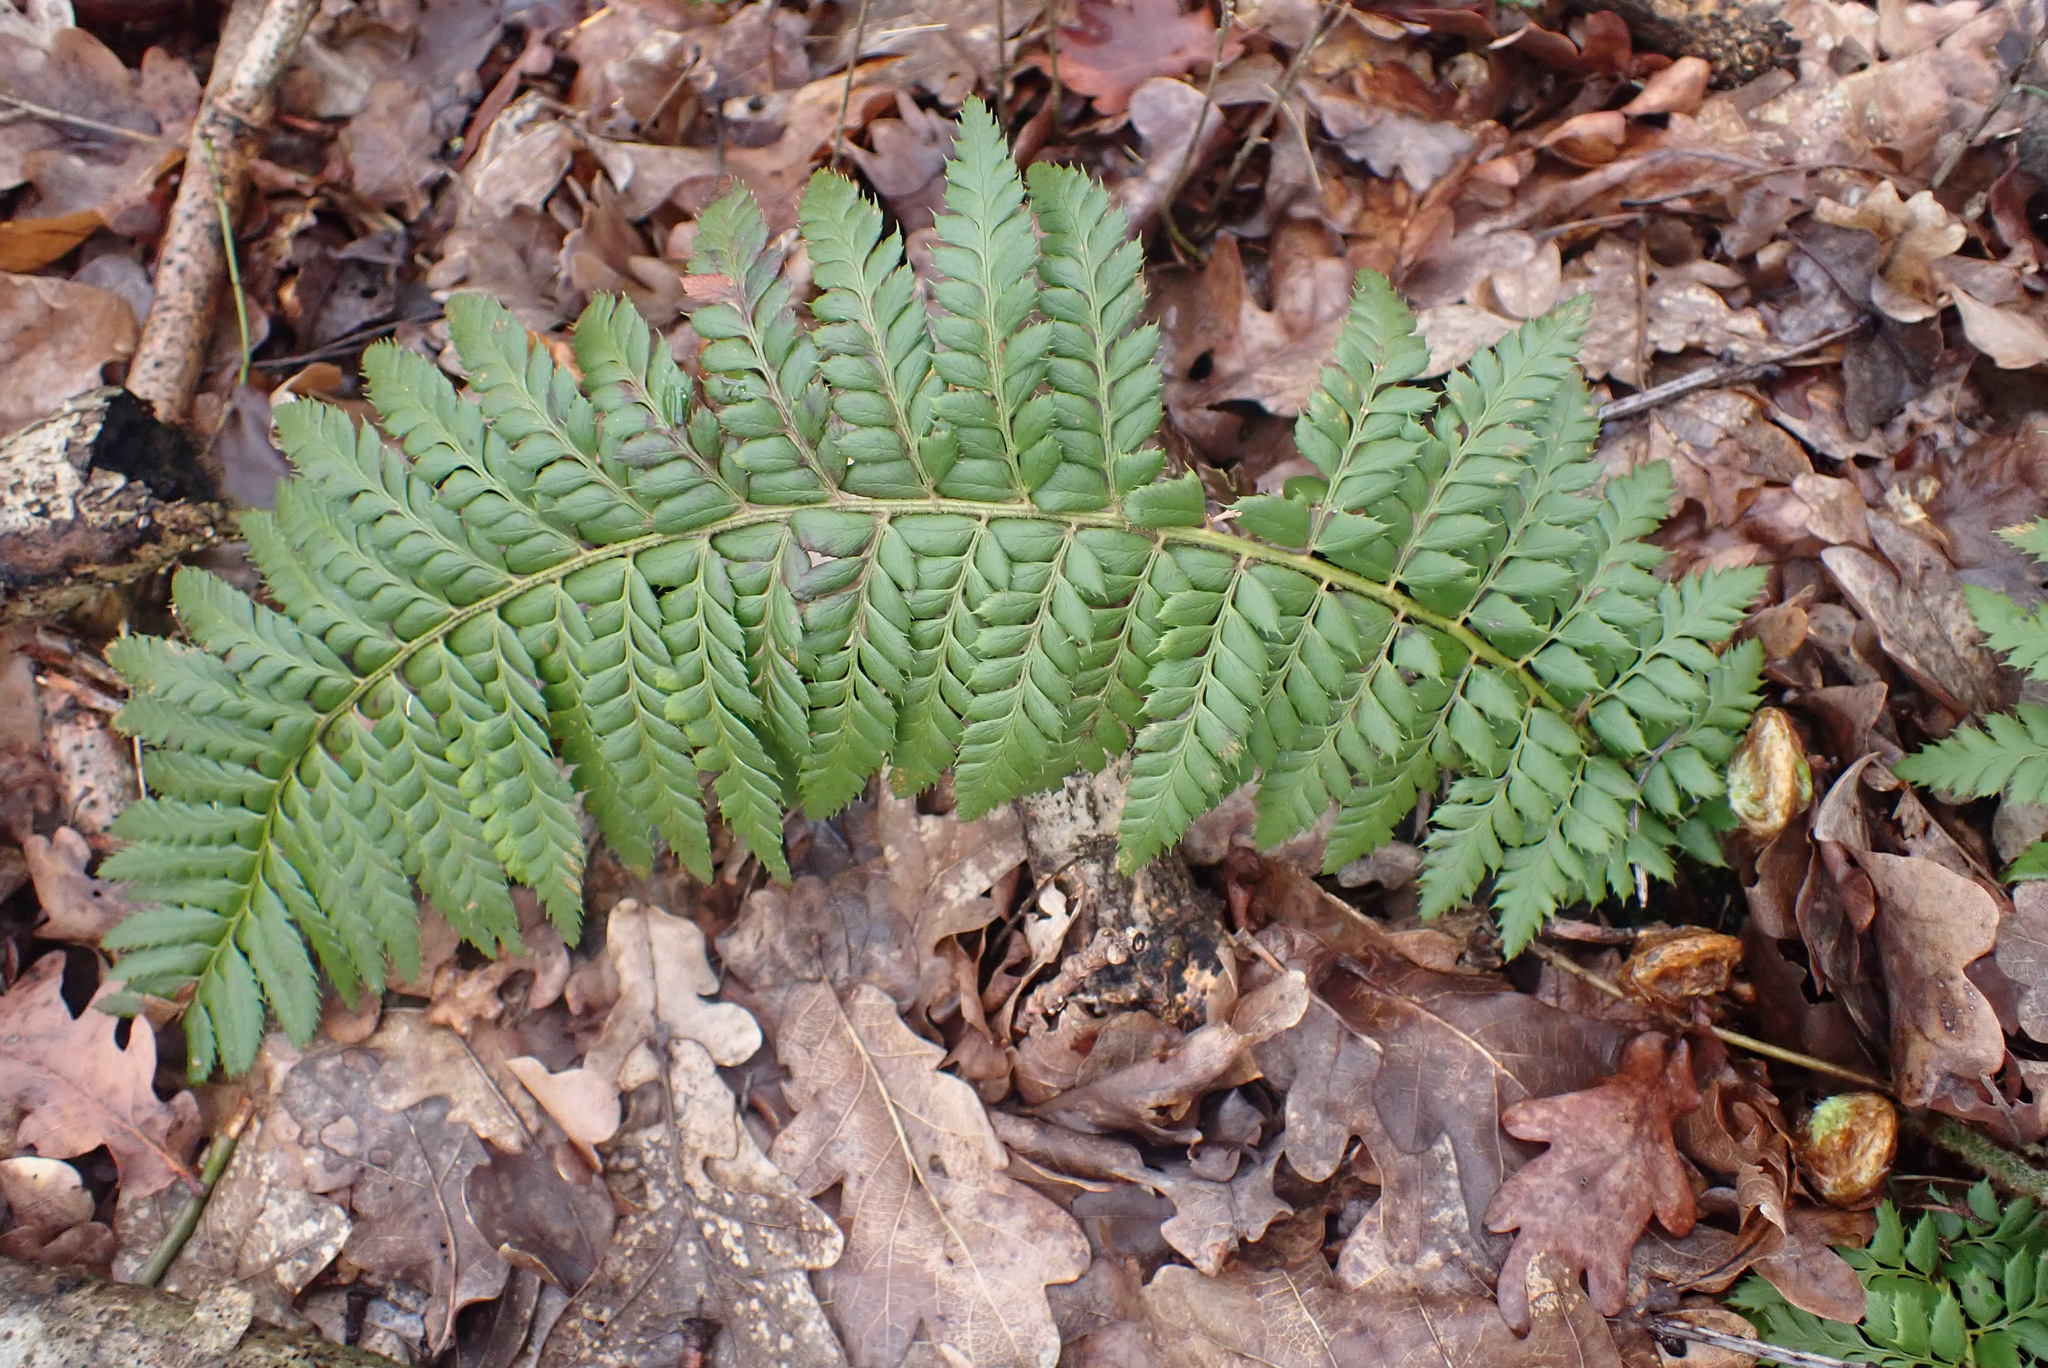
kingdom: Plantae
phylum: Tracheophyta
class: Polypodiopsida
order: Polypodiales
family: Dryopteridaceae
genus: Polystichum
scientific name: Polystichum aculeatum
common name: Hard shield-fern
